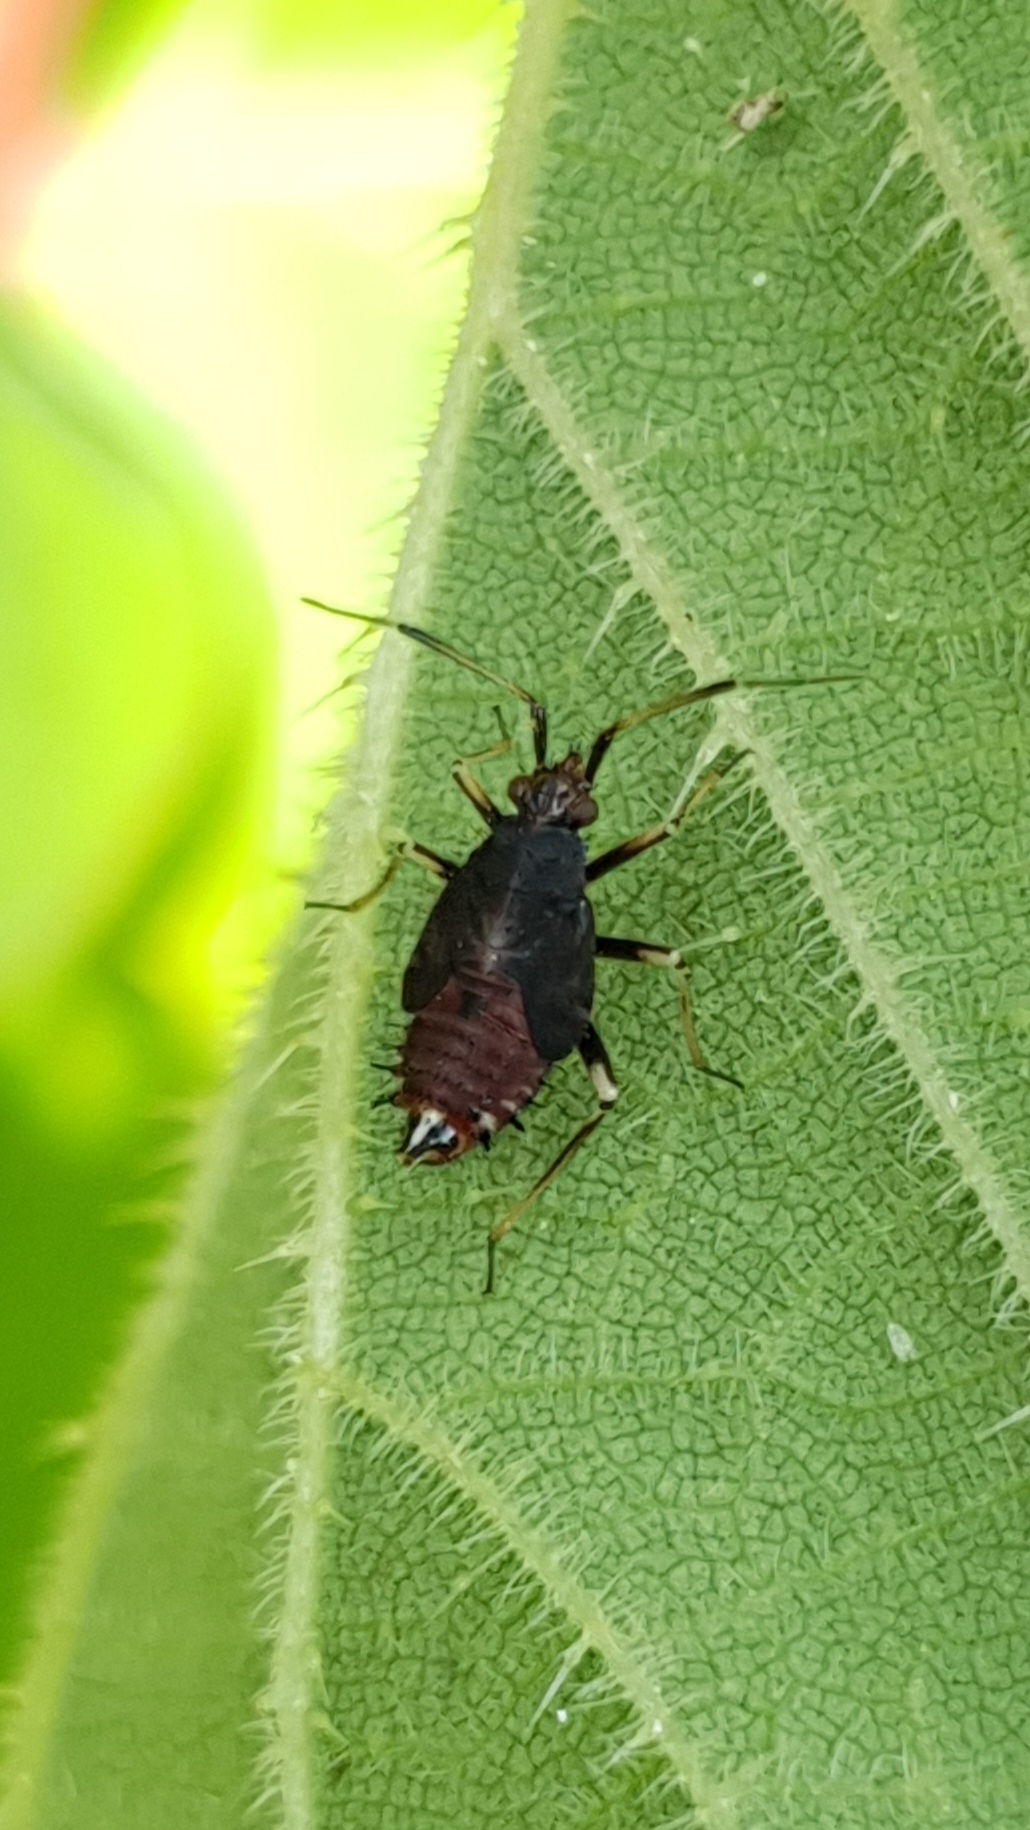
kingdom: Animalia
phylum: Arthropoda
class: Insecta
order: Hemiptera
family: Miridae
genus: Deraeocoris
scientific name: Deraeocoris ruber
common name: Plant bug
